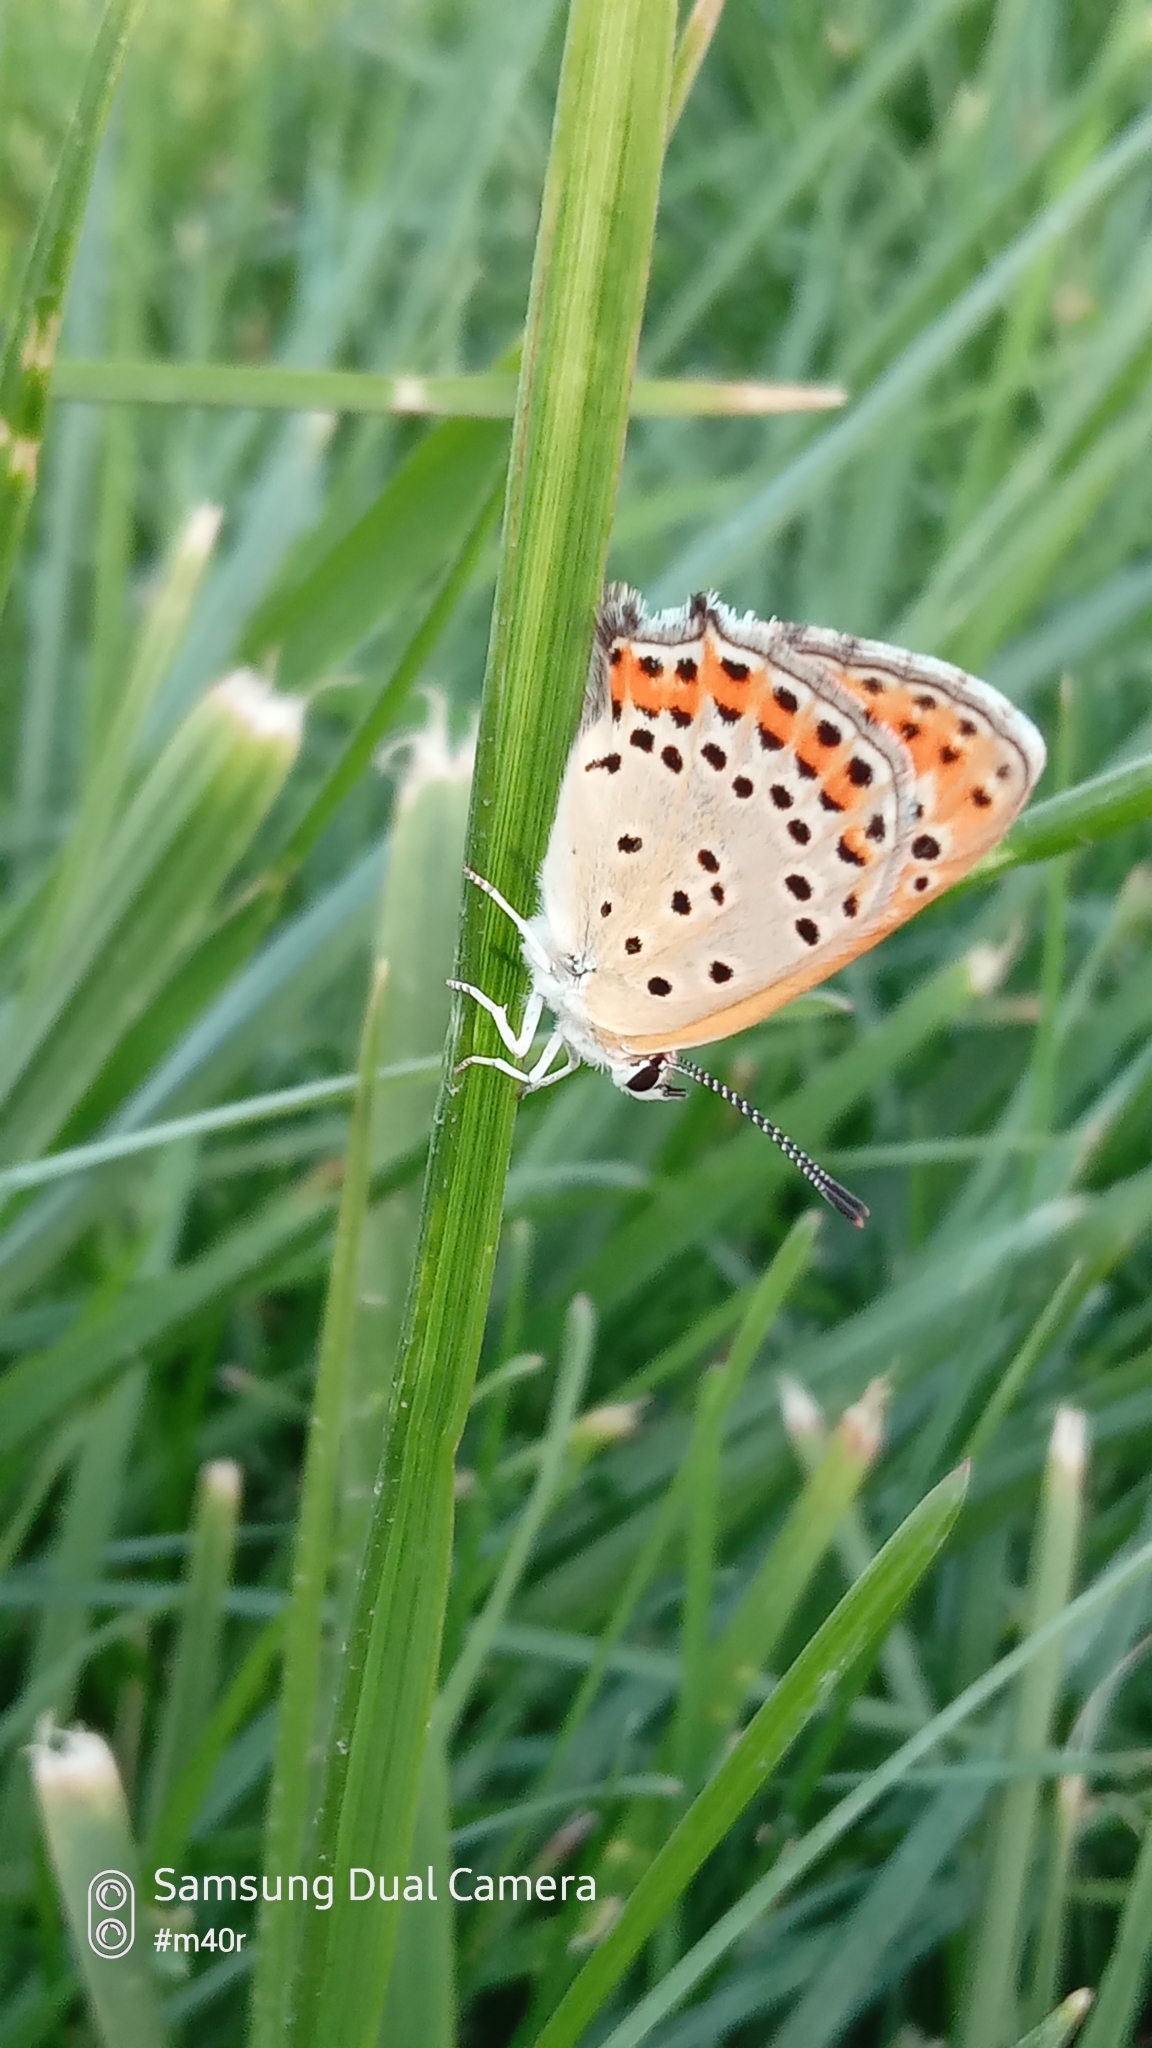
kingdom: Animalia
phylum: Arthropoda
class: Insecta
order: Lepidoptera
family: Lycaenidae
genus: Thersamonia
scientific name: Thersamonia thersamon
